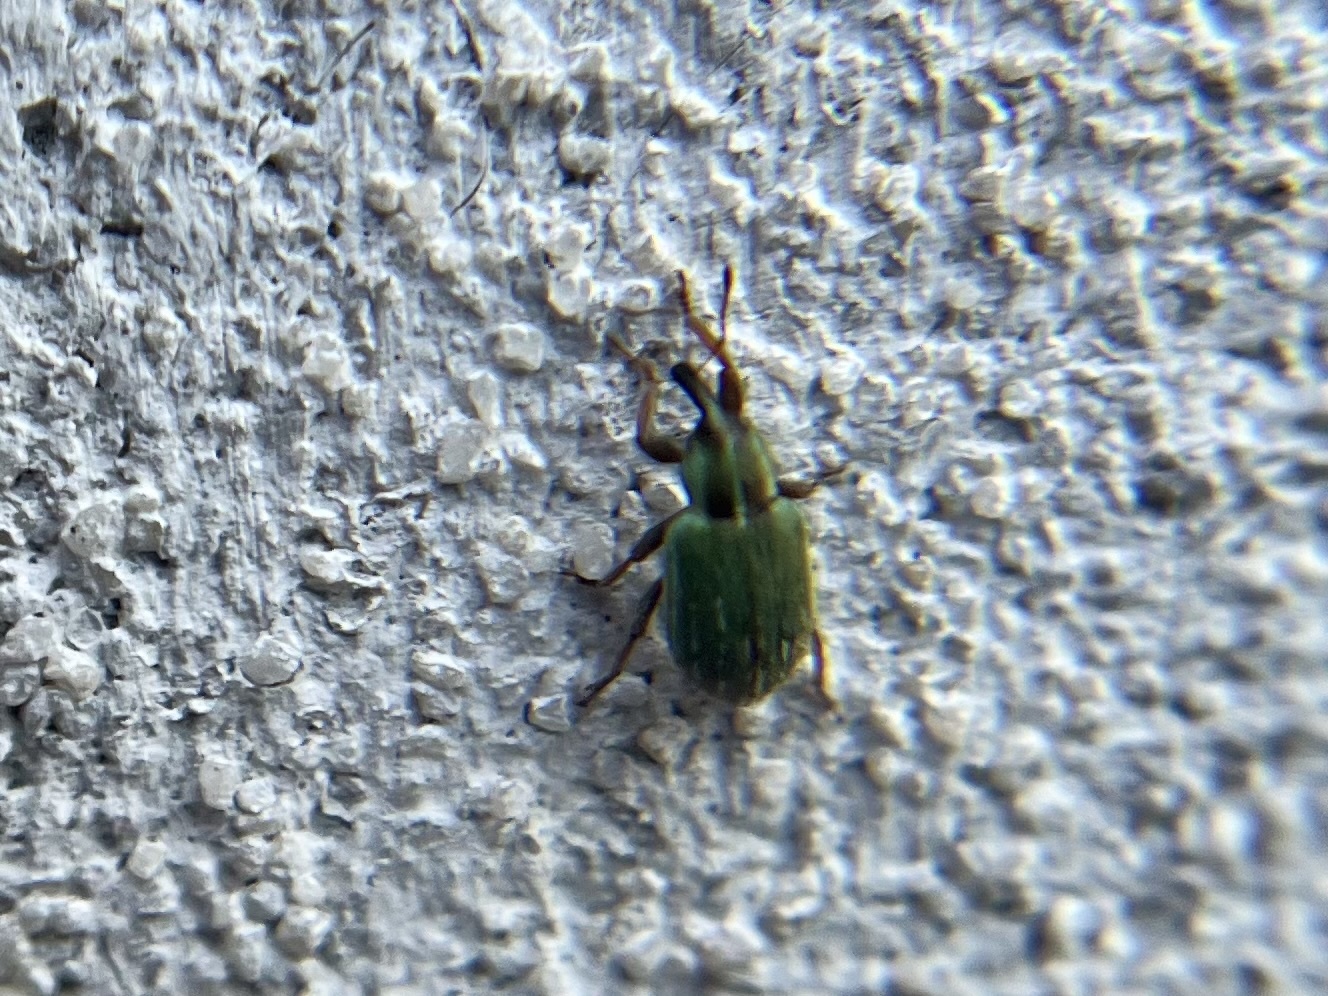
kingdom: Animalia
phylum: Arthropoda
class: Insecta
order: Coleoptera
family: Curculionidae
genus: Hypera
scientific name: Hypera nigrirostris
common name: Black-beaked green weevil
